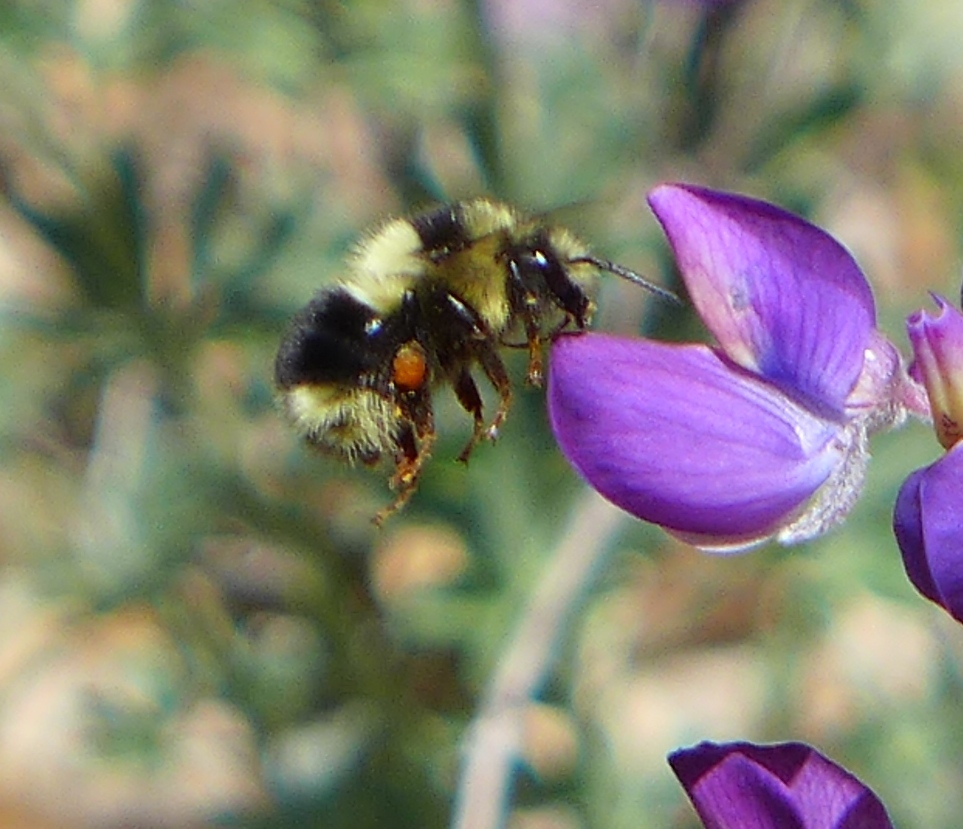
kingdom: Animalia
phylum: Arthropoda
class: Insecta
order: Hymenoptera
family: Apidae
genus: Bombus
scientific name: Bombus melanopygus
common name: Black tail bumble bee
